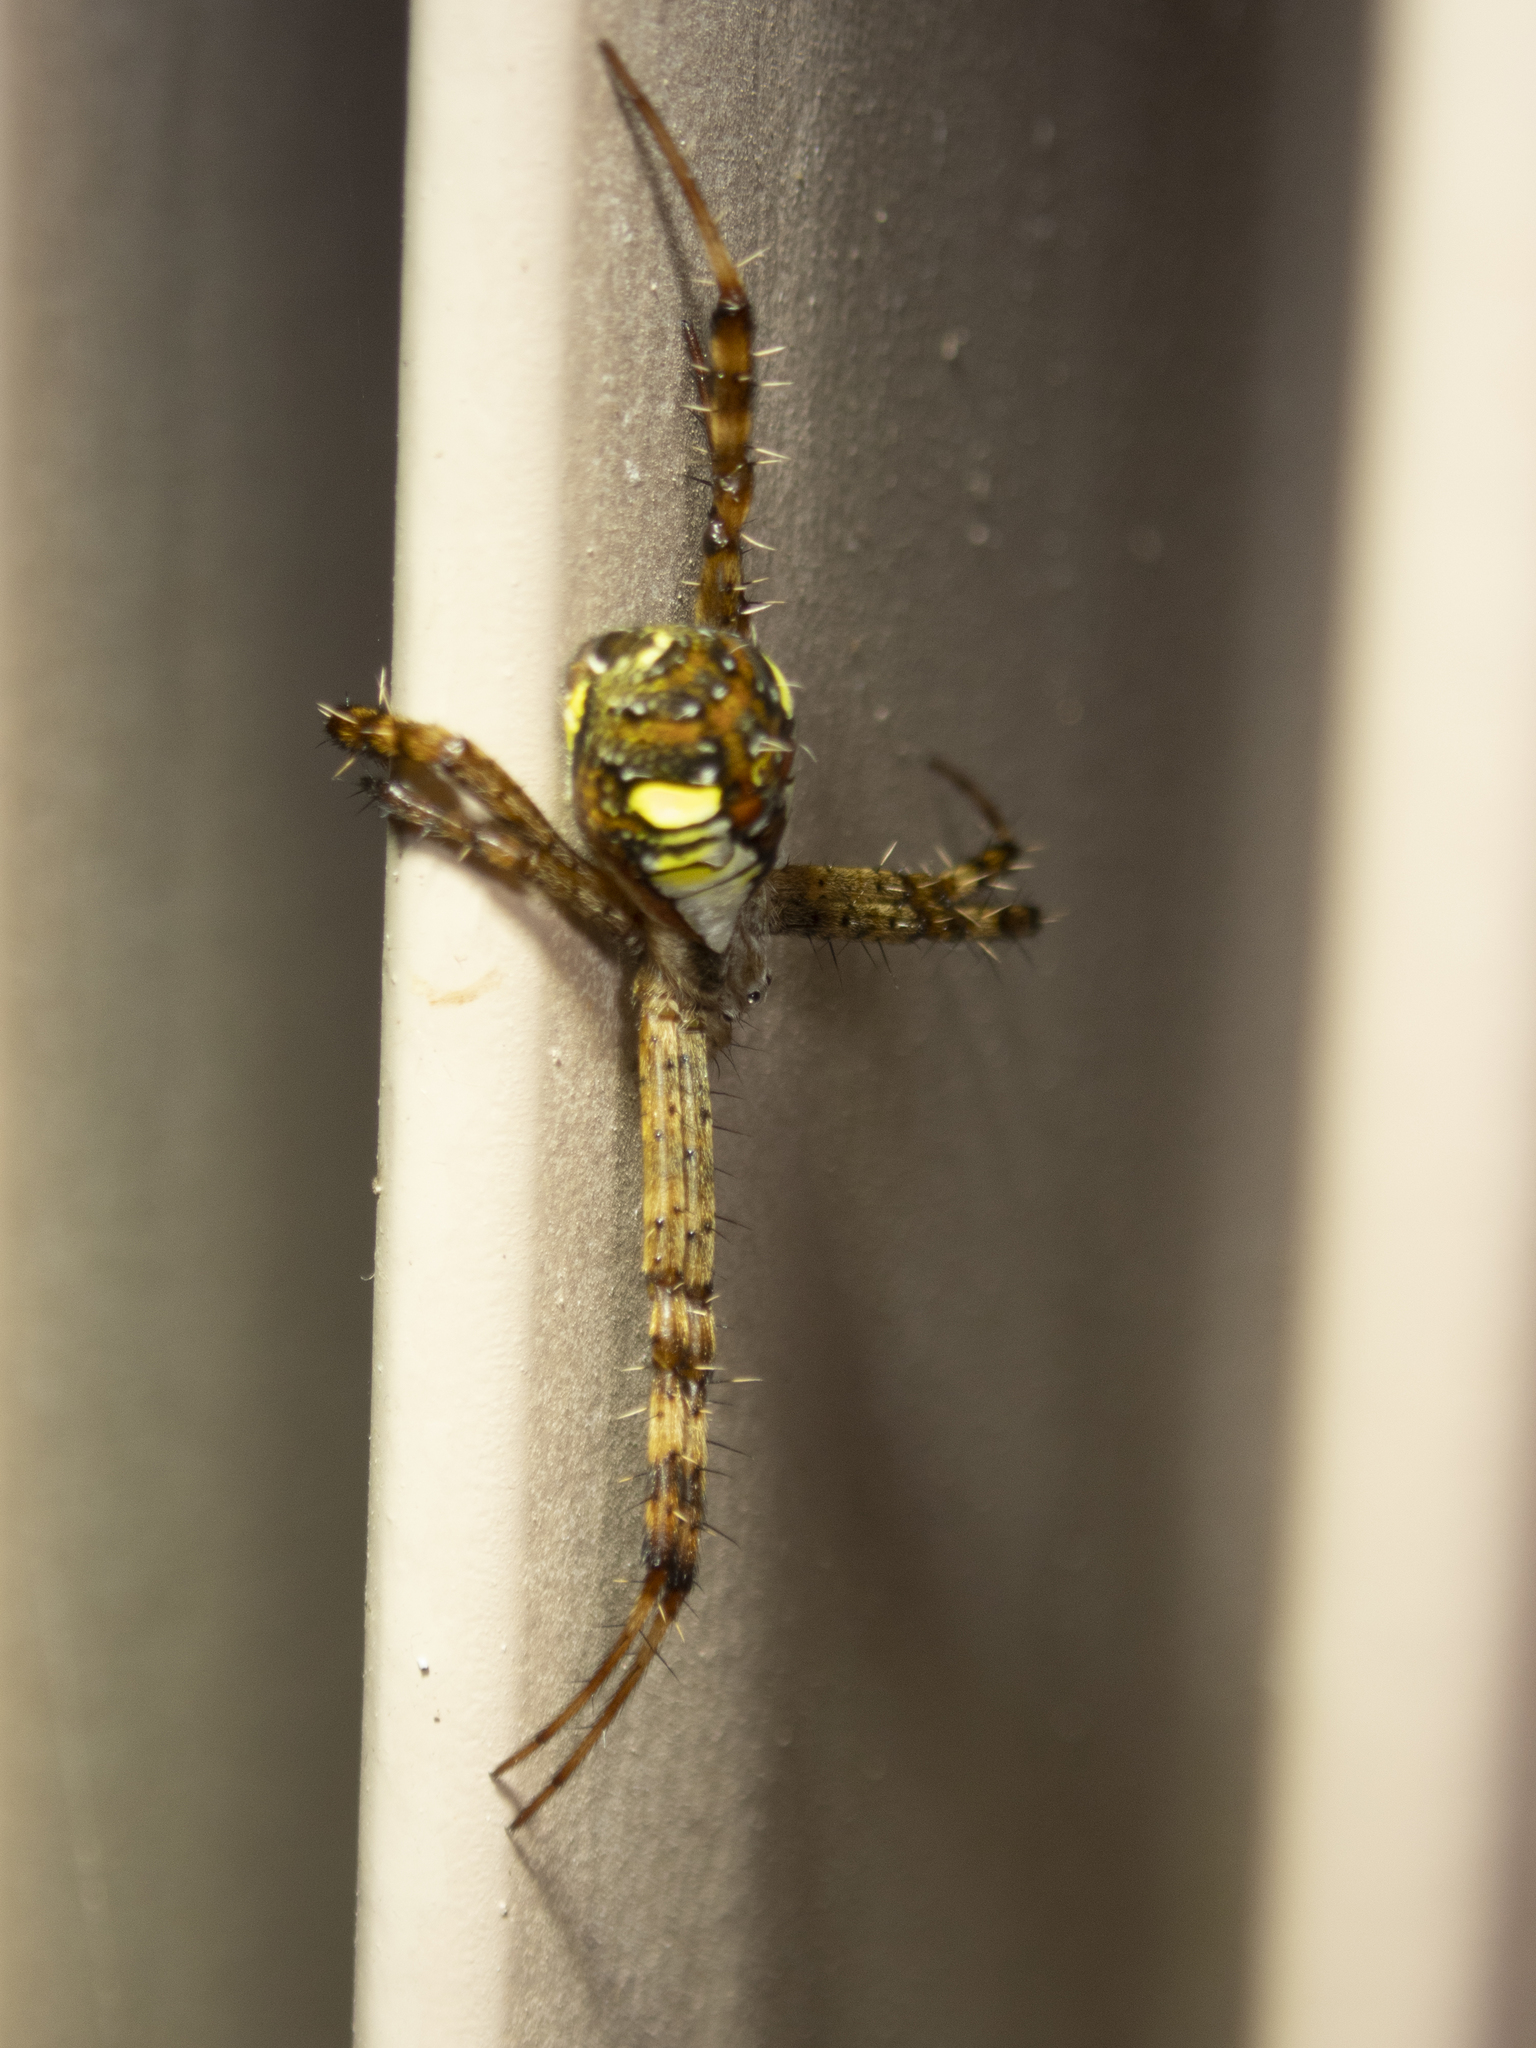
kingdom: Animalia
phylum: Arthropoda
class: Arachnida
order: Araneae
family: Araneidae
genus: Argiope
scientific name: Argiope perforata
